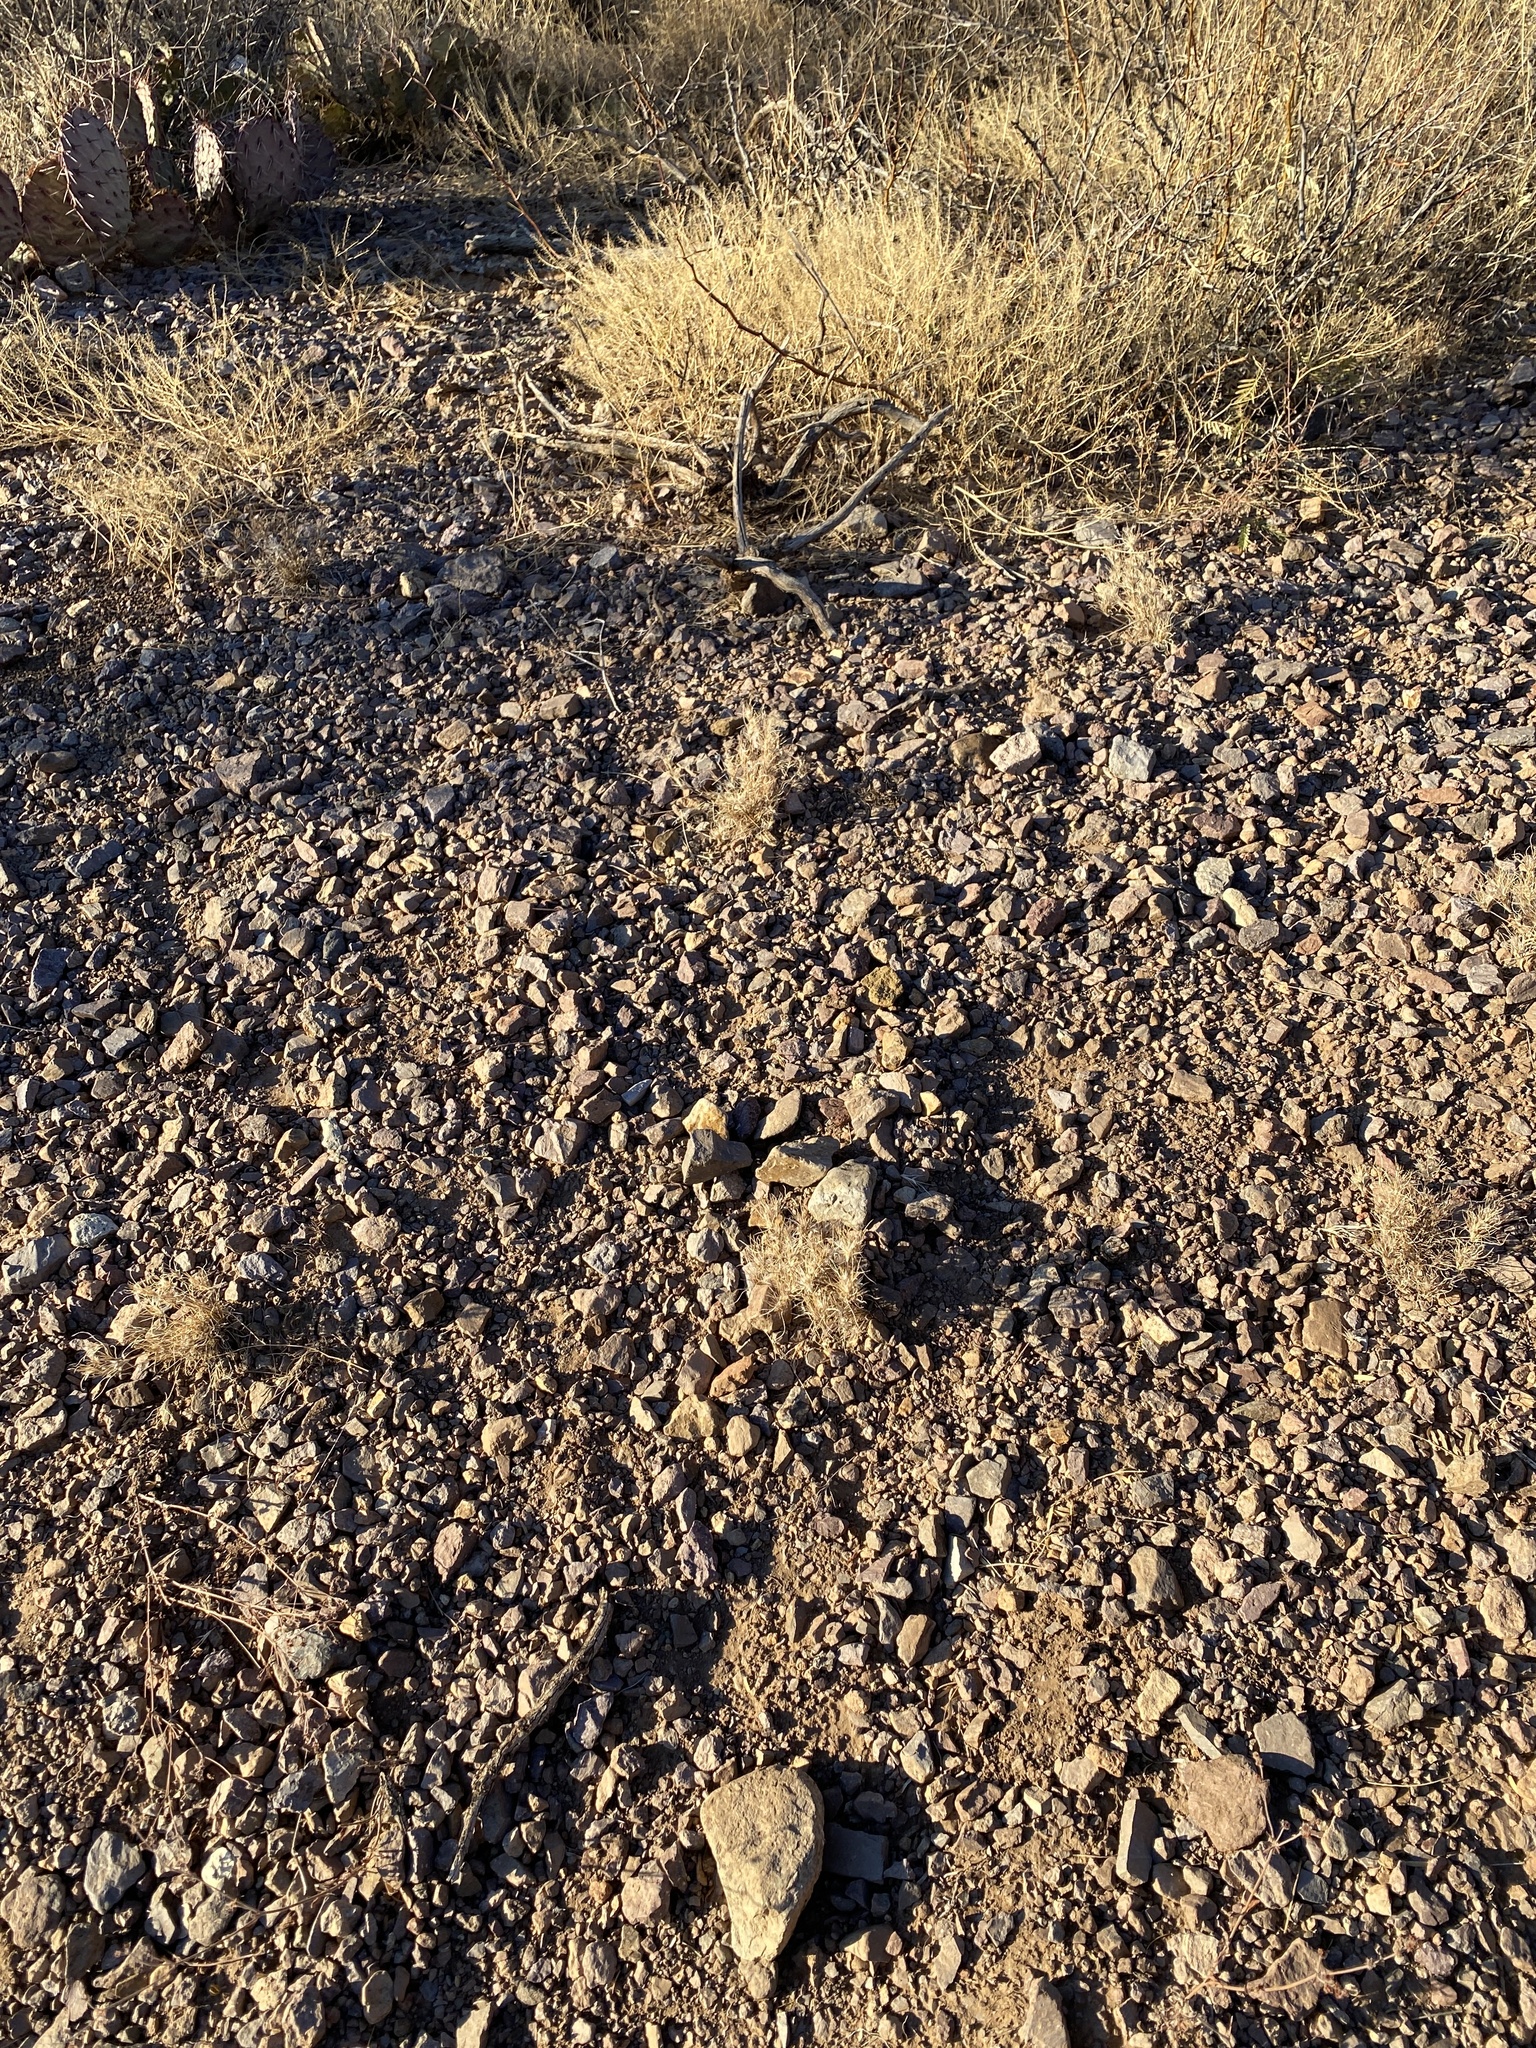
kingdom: Plantae
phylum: Tracheophyta
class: Liliopsida
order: Poales
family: Poaceae
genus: Dasyochloa
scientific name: Dasyochloa pulchella
